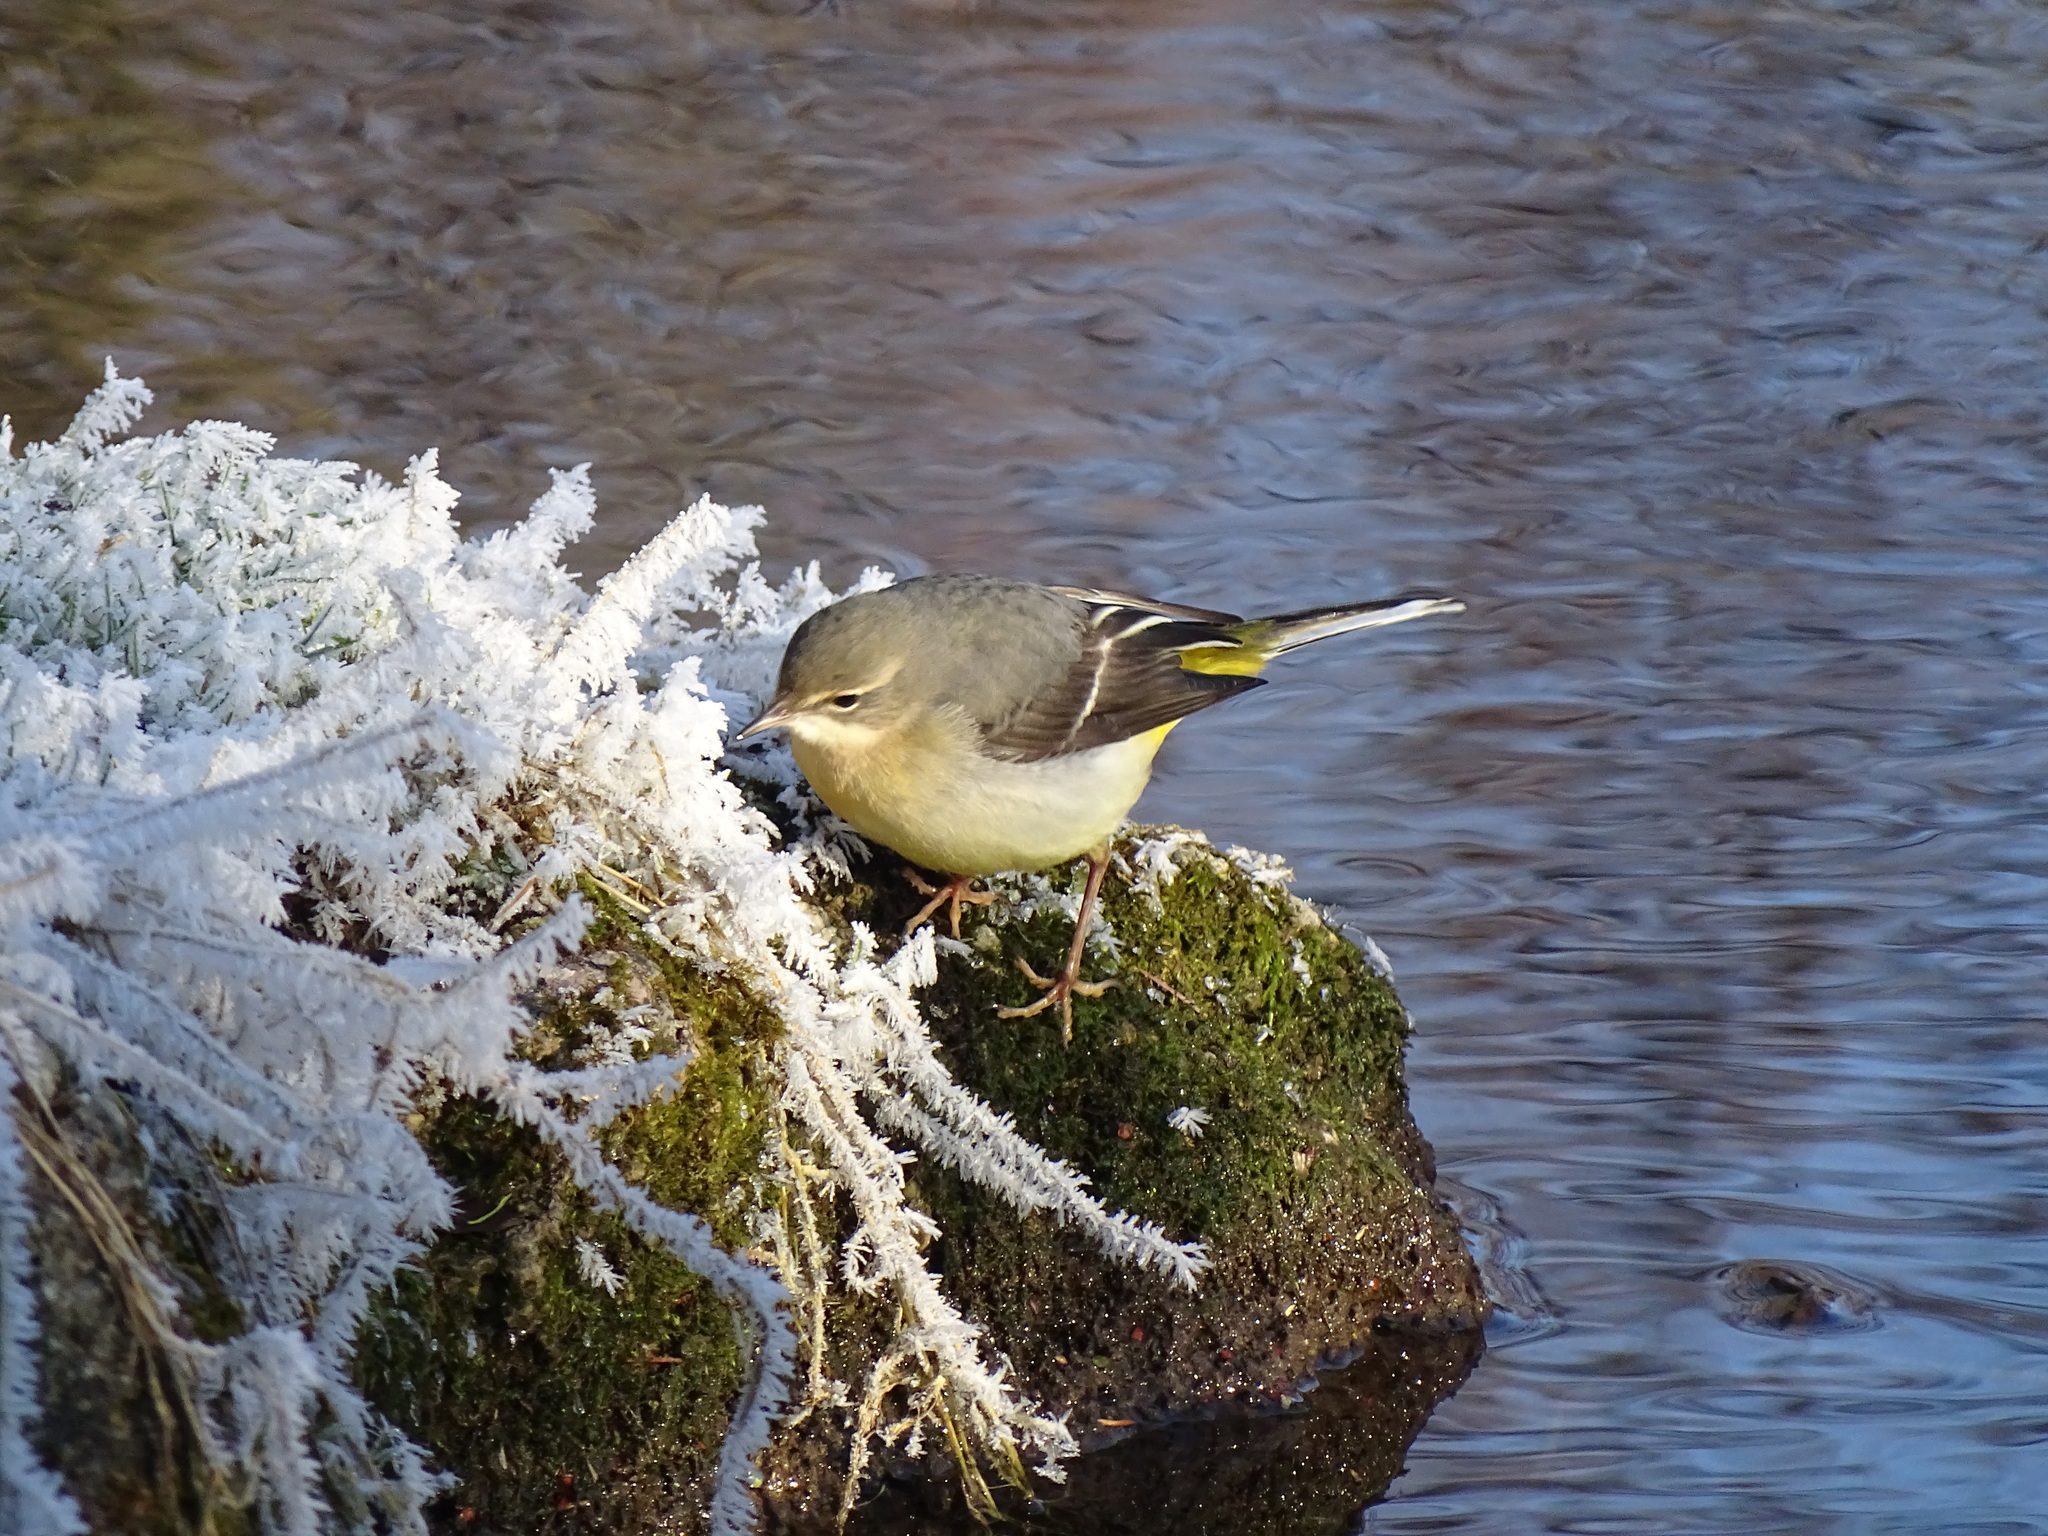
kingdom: Animalia
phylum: Chordata
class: Aves
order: Passeriformes
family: Motacillidae
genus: Motacilla
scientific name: Motacilla cinerea
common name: Grey wagtail
